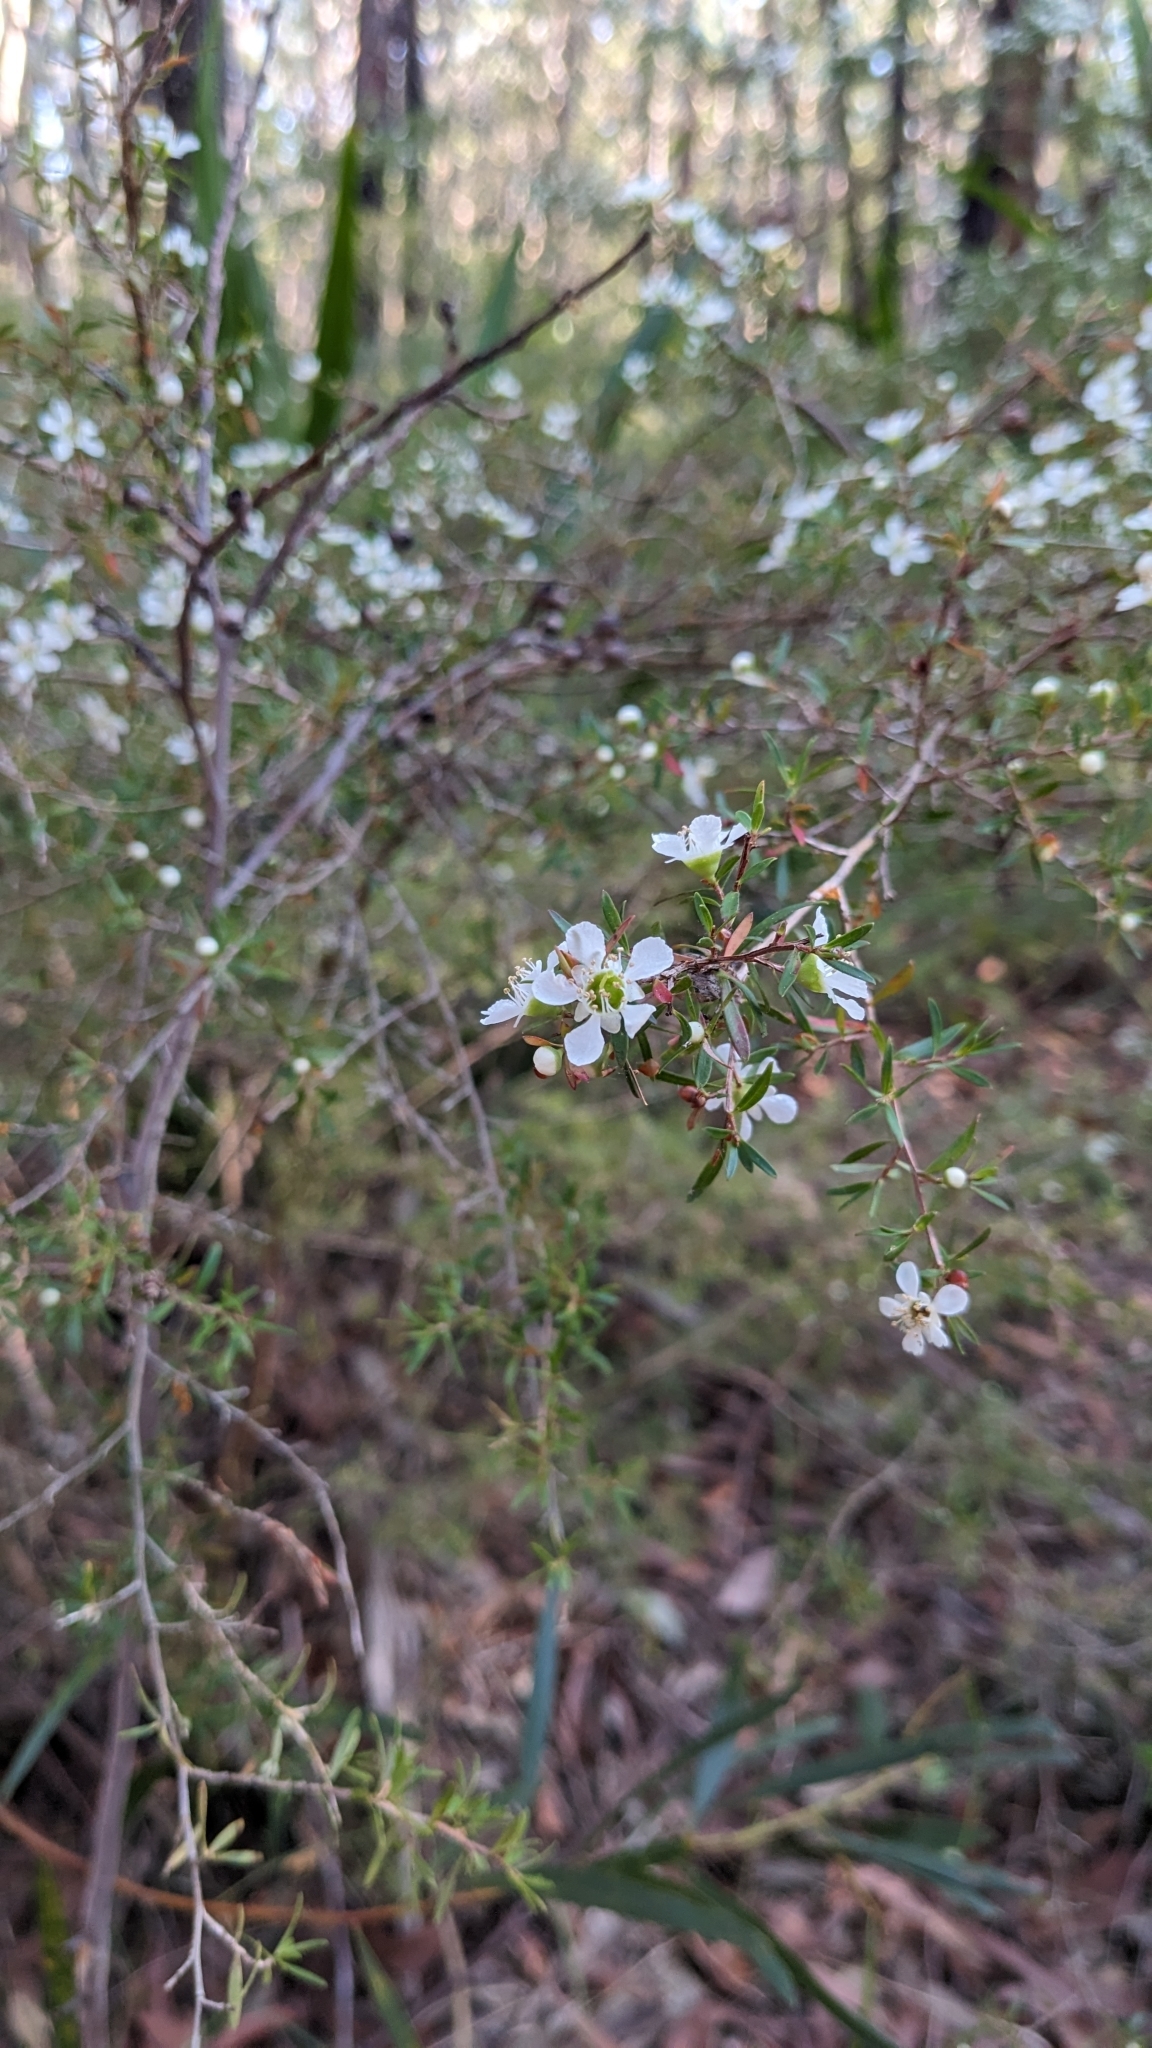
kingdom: Plantae
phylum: Tracheophyta
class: Magnoliopsida
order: Myrtales
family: Myrtaceae
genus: Leptospermum
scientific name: Leptospermum polygalifolium
